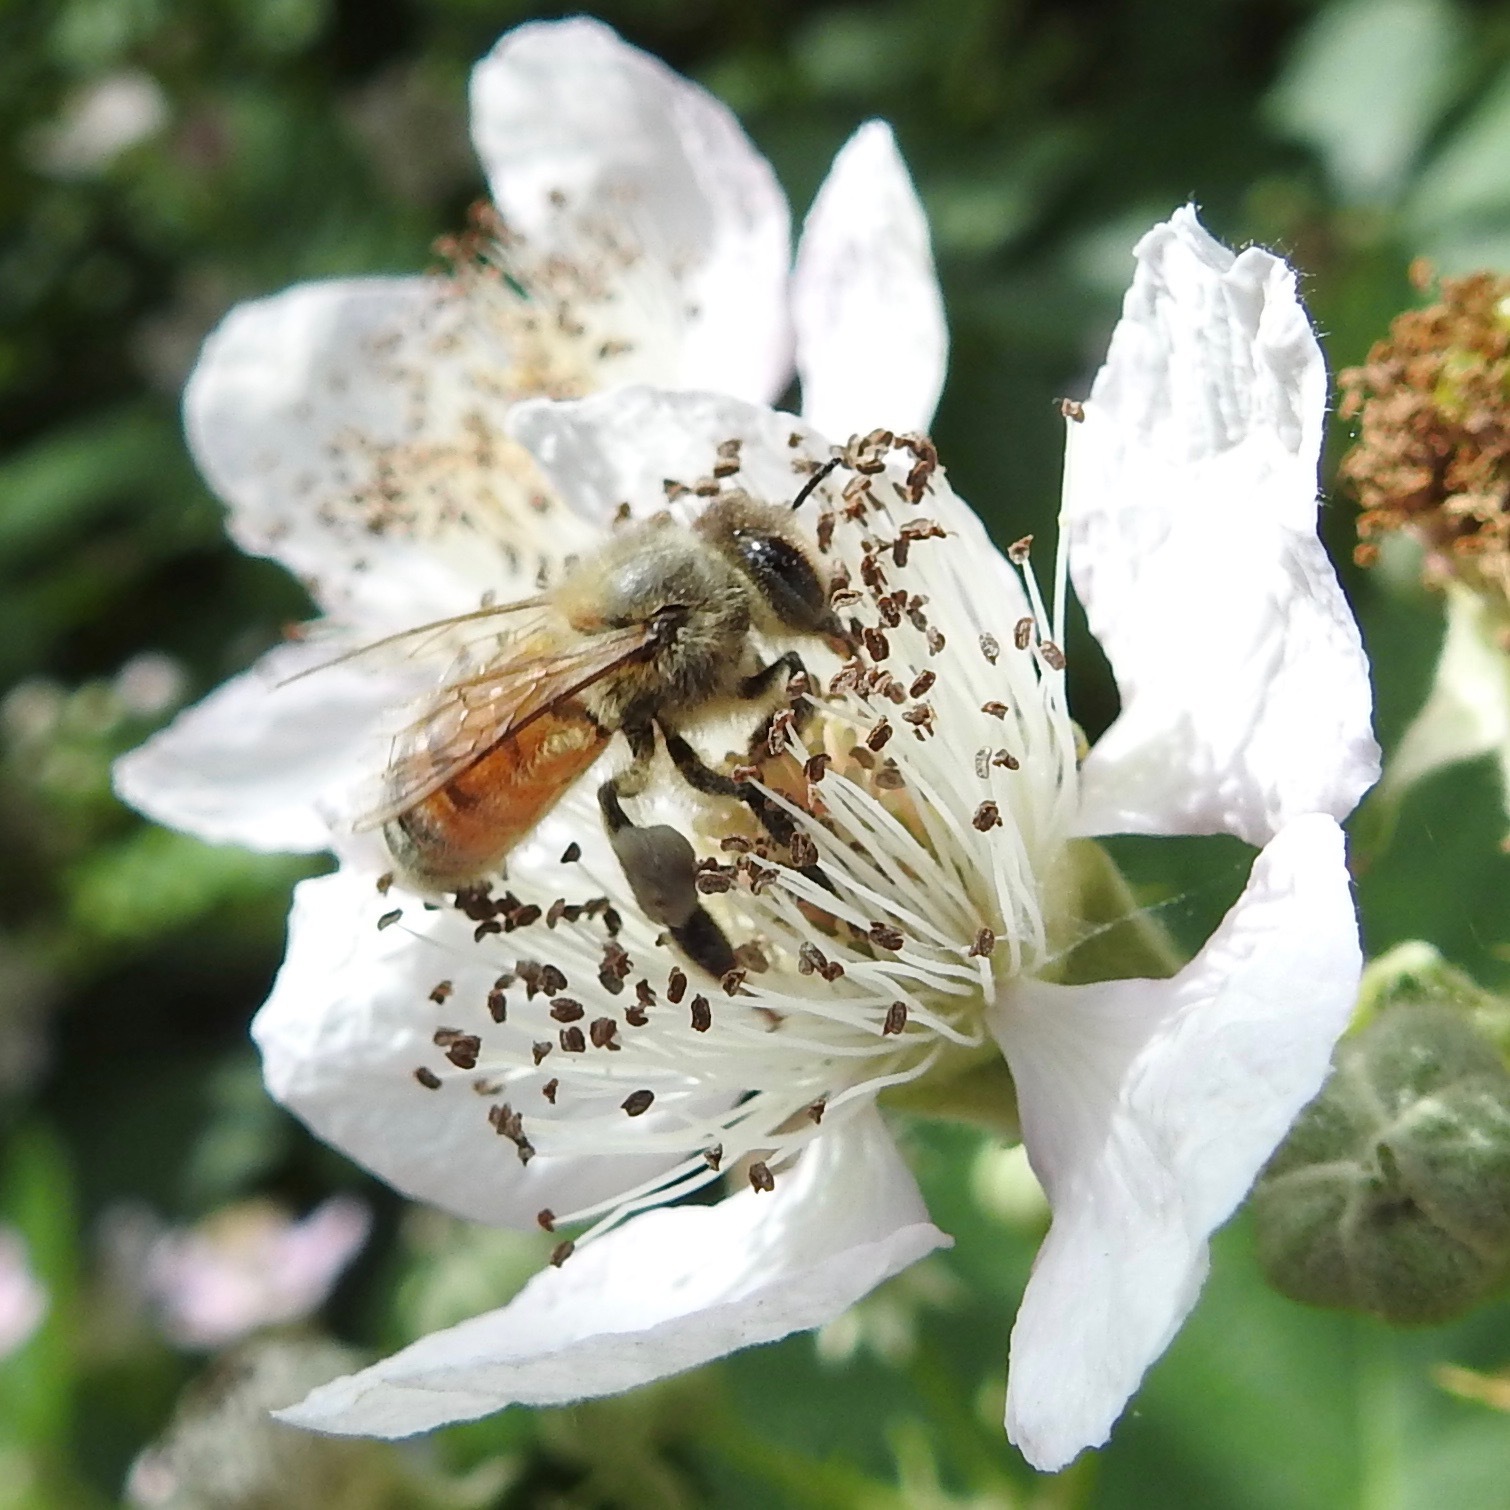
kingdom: Animalia
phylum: Arthropoda
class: Insecta
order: Hymenoptera
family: Apidae
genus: Apis
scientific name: Apis mellifera
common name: Honey bee
